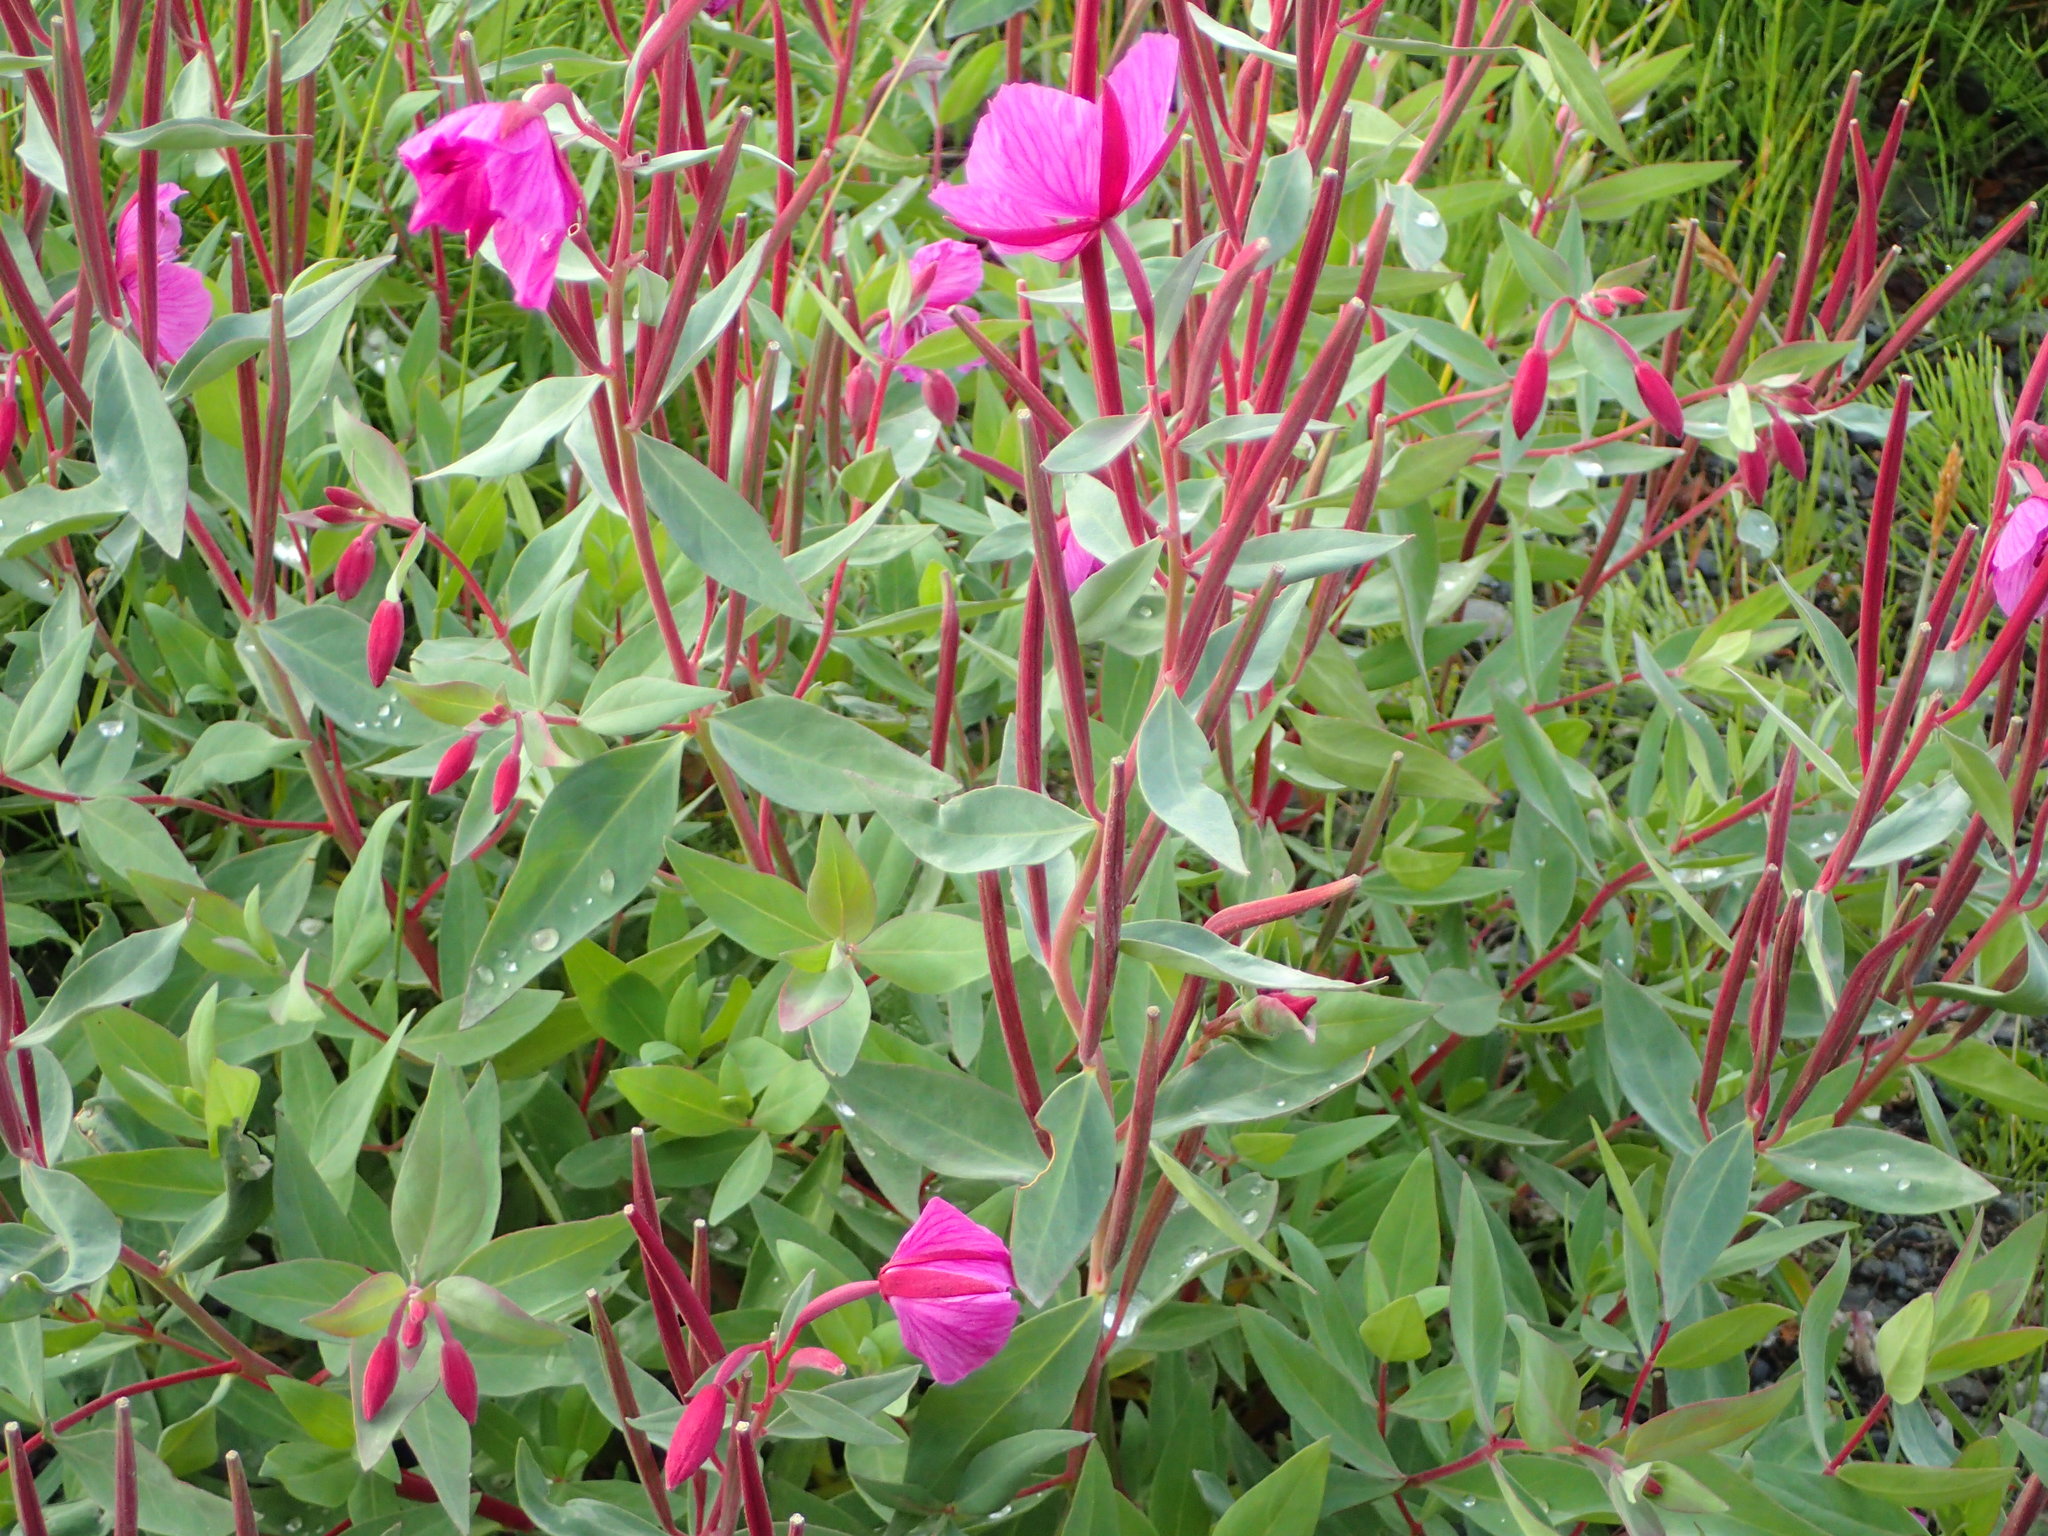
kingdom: Plantae
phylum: Tracheophyta
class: Magnoliopsida
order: Myrtales
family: Onagraceae
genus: Chamaenerion
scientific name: Chamaenerion latifolium
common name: Dwarf fireweed
